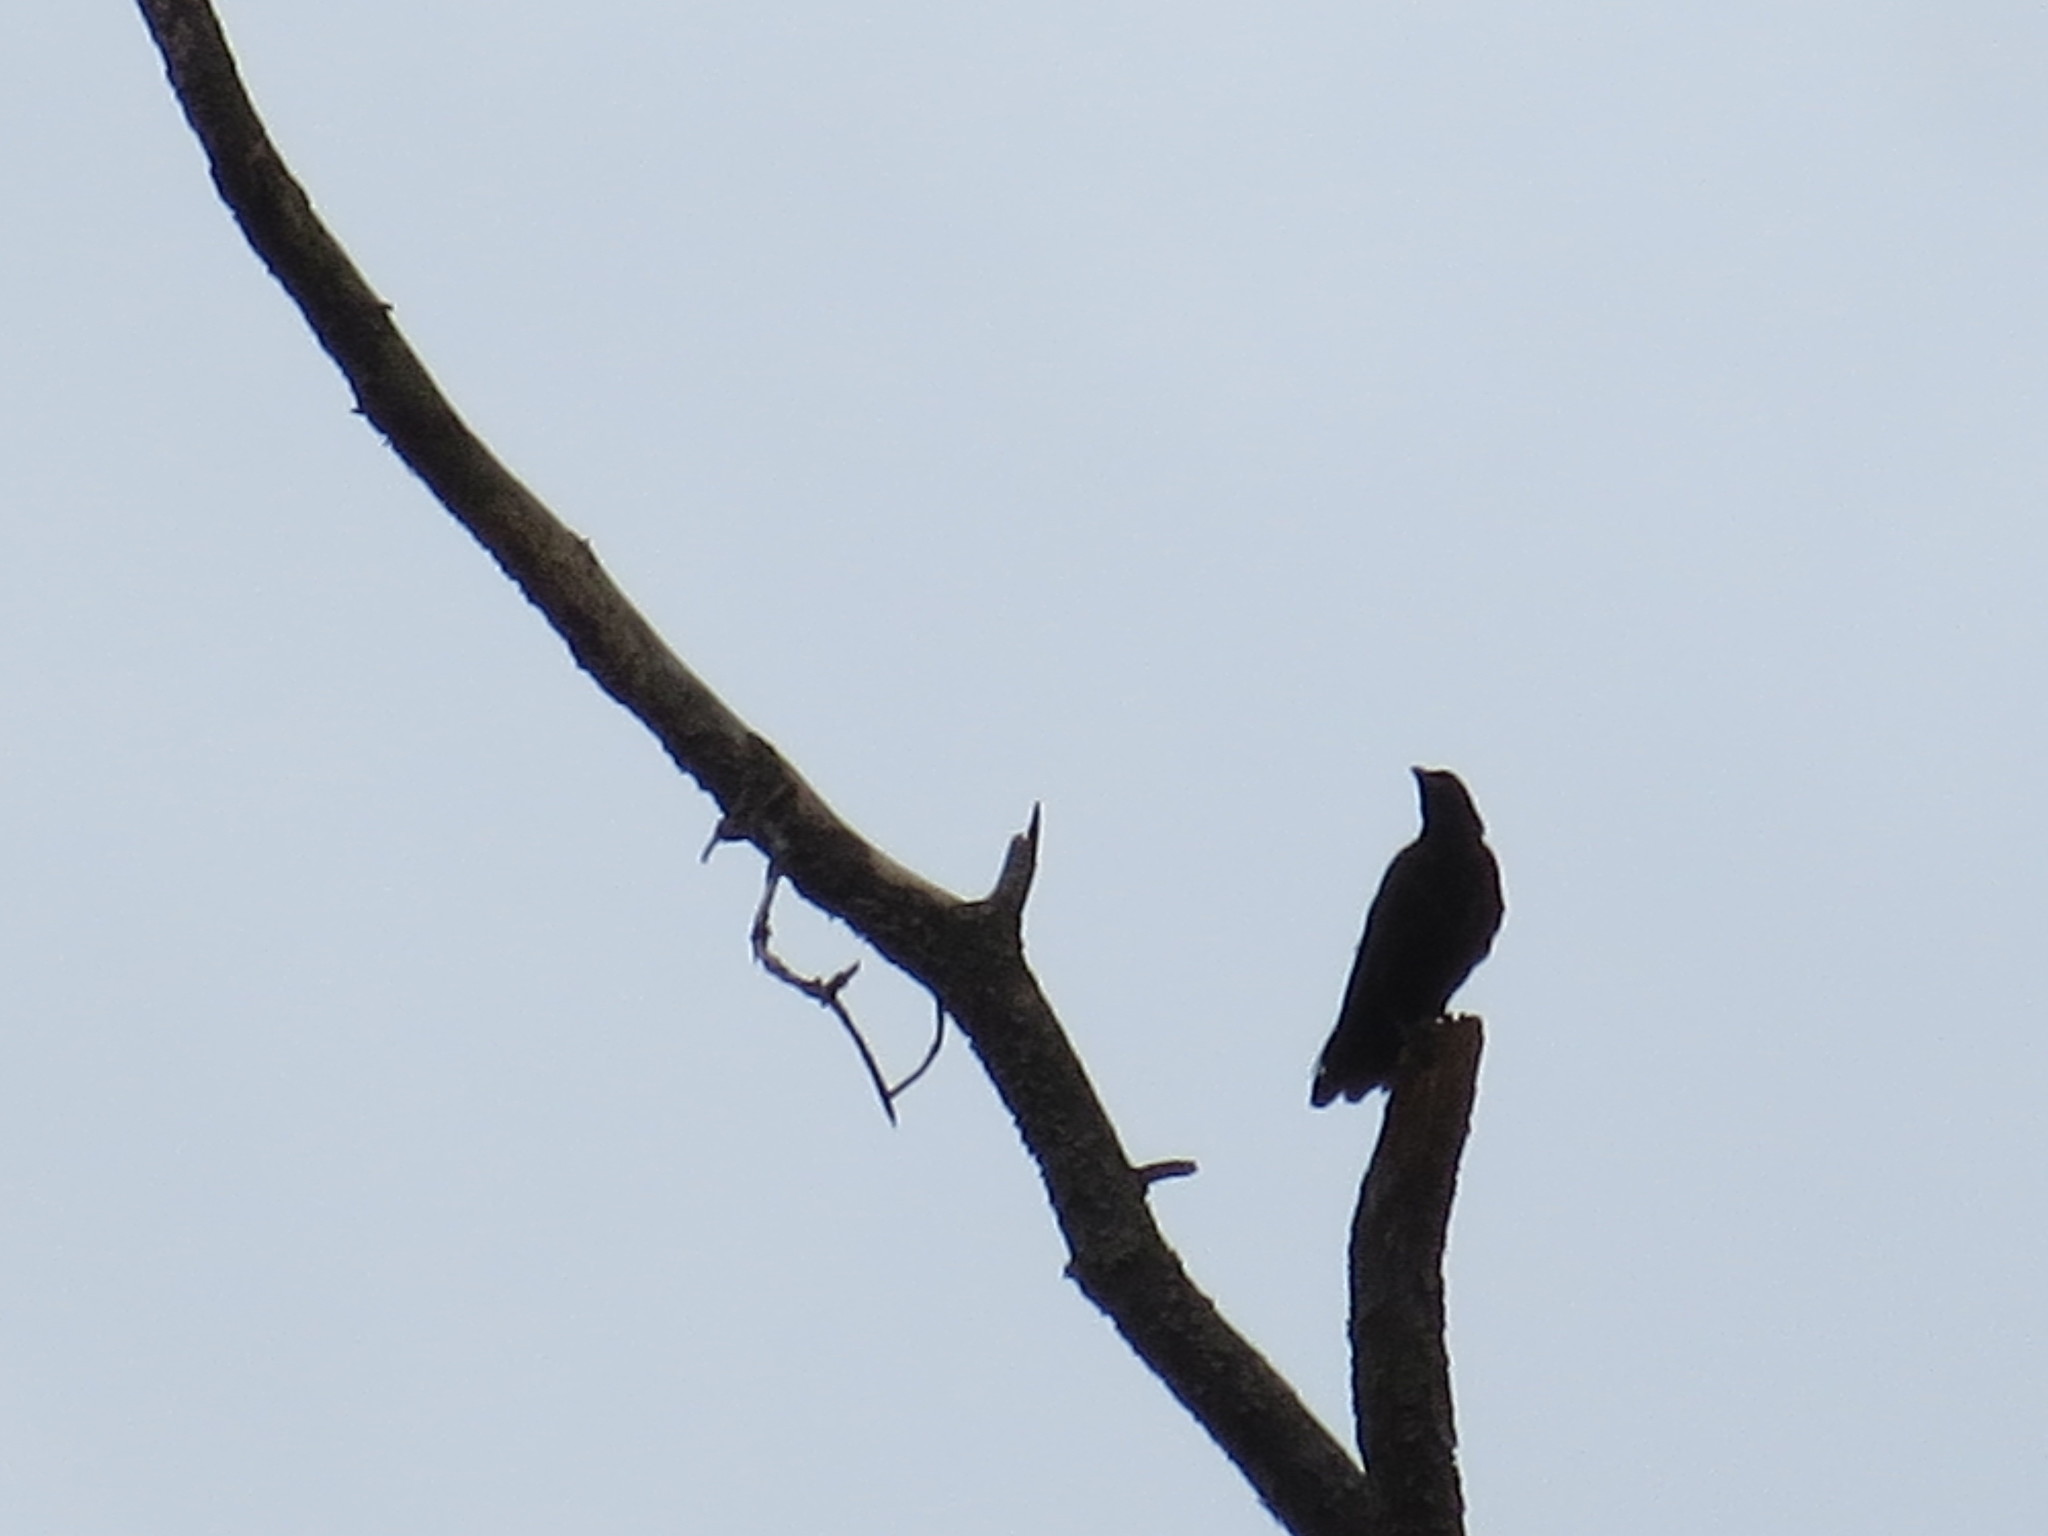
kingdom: Animalia
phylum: Chordata
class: Aves
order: Passeriformes
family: Corvidae
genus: Corvus
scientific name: Corvus
